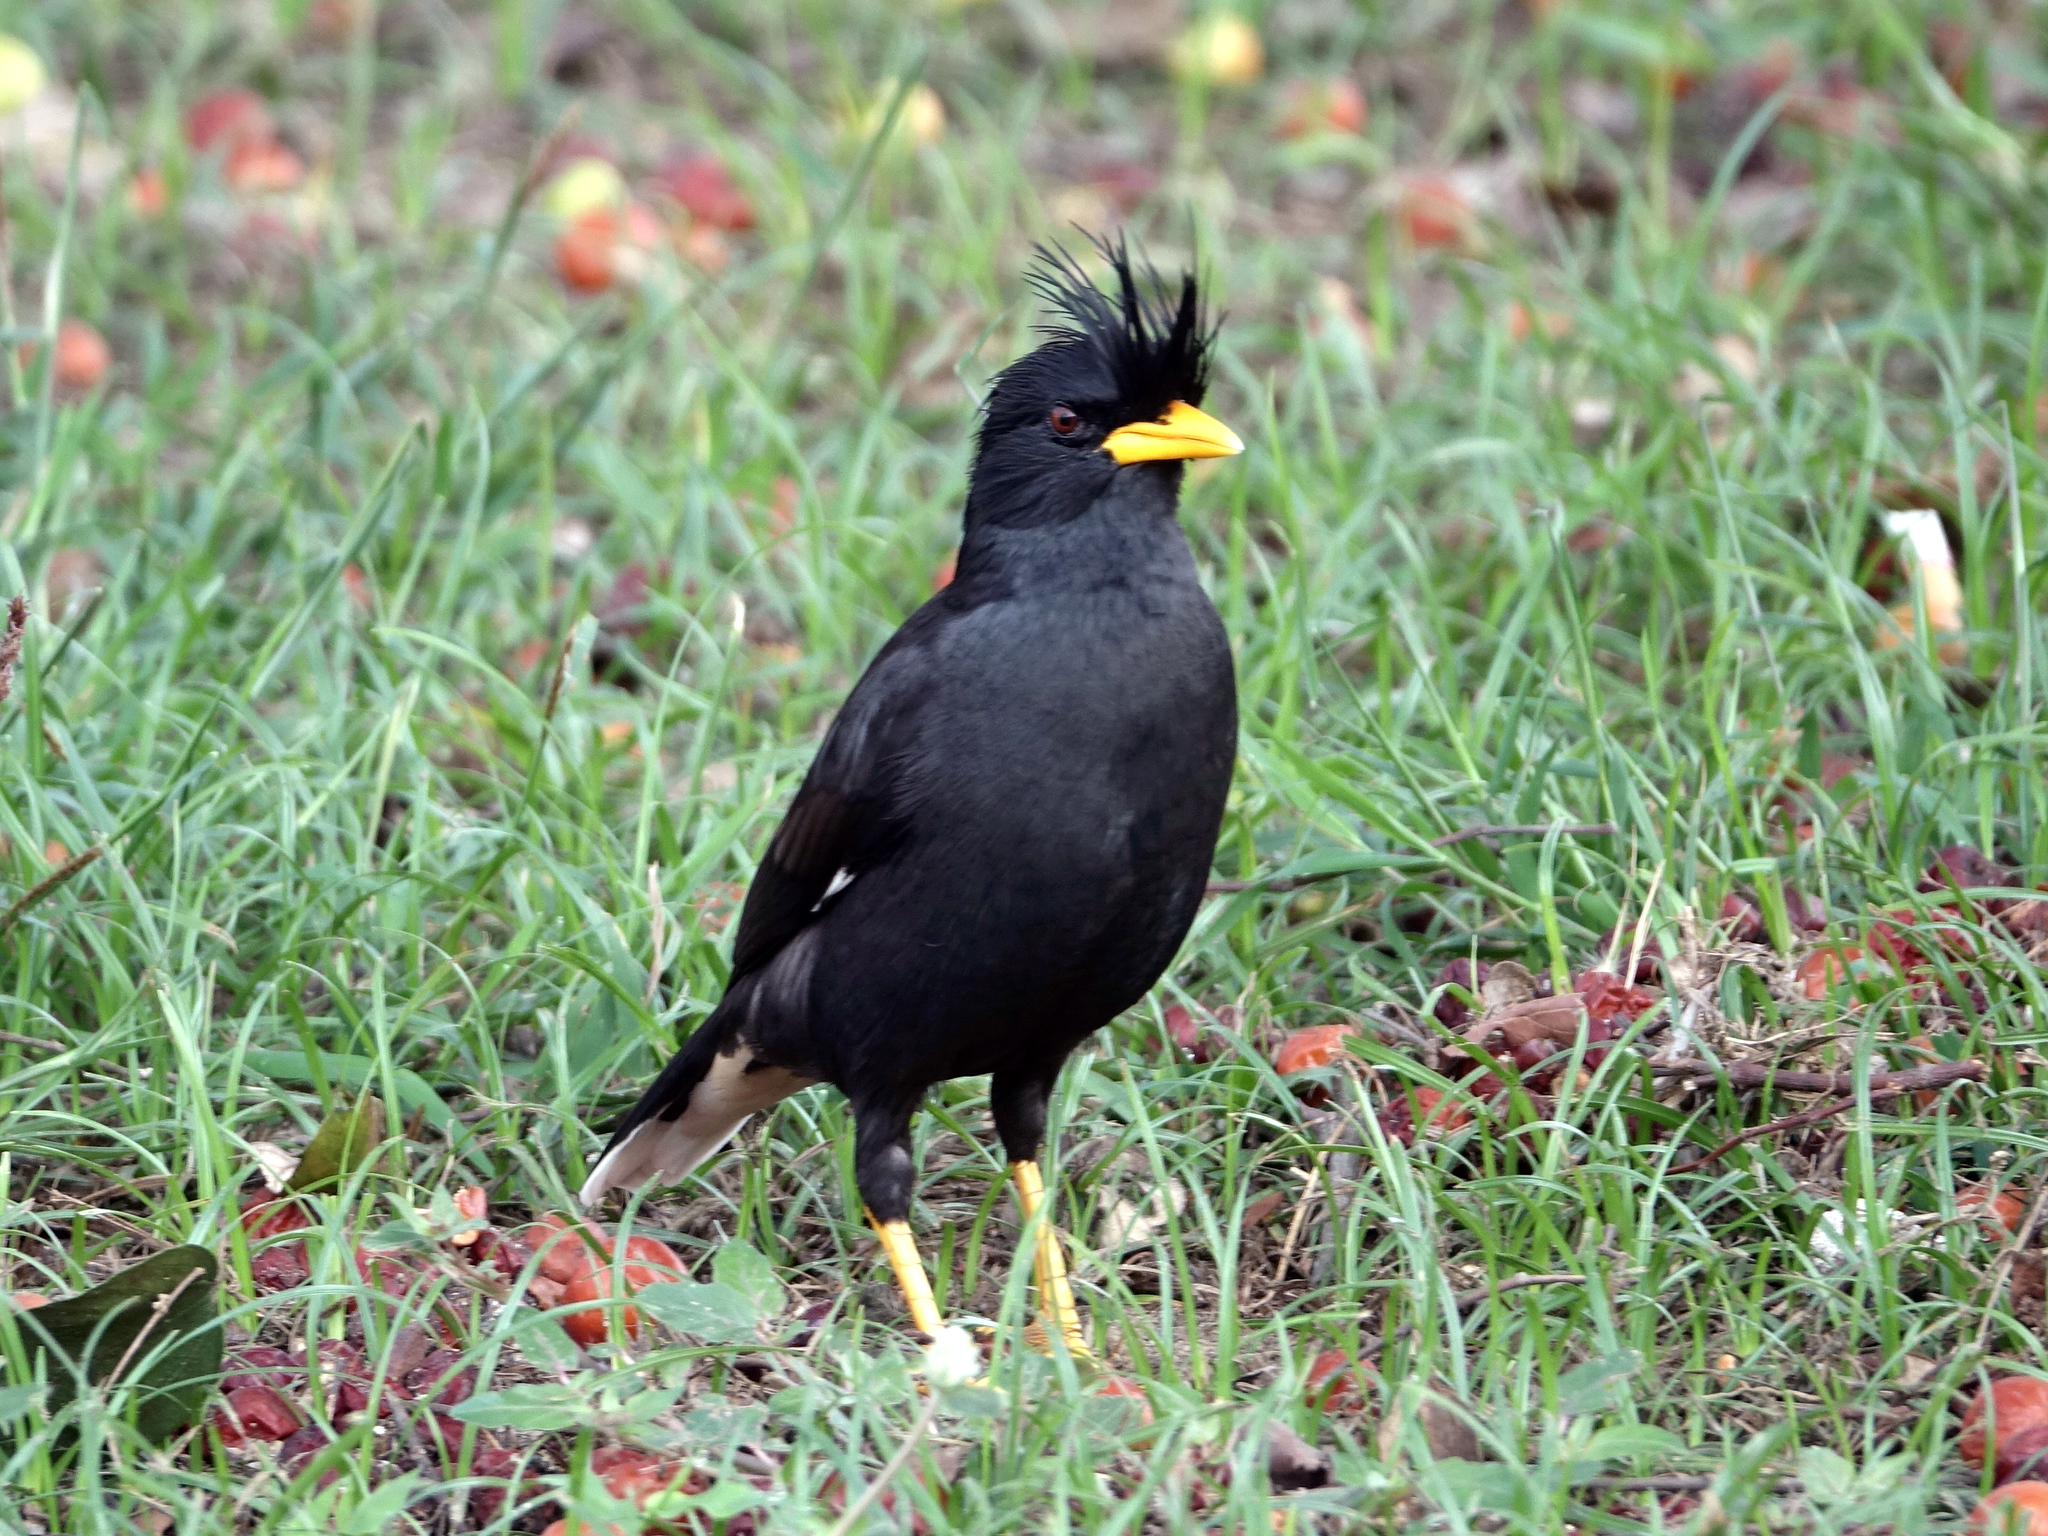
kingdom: Animalia
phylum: Chordata
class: Aves
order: Passeriformes
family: Sturnidae
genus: Acridotheres
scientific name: Acridotheres grandis
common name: Great myna
